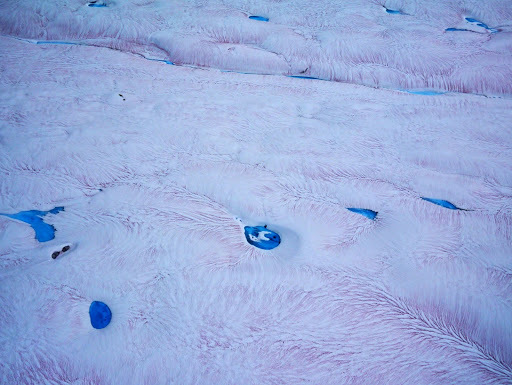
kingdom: Plantae
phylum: Chlorophyta
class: Chlorophyceae
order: Volvocales
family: Chlamydomonadaceae
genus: Chlamydomonas
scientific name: Chlamydomonas nivalis
